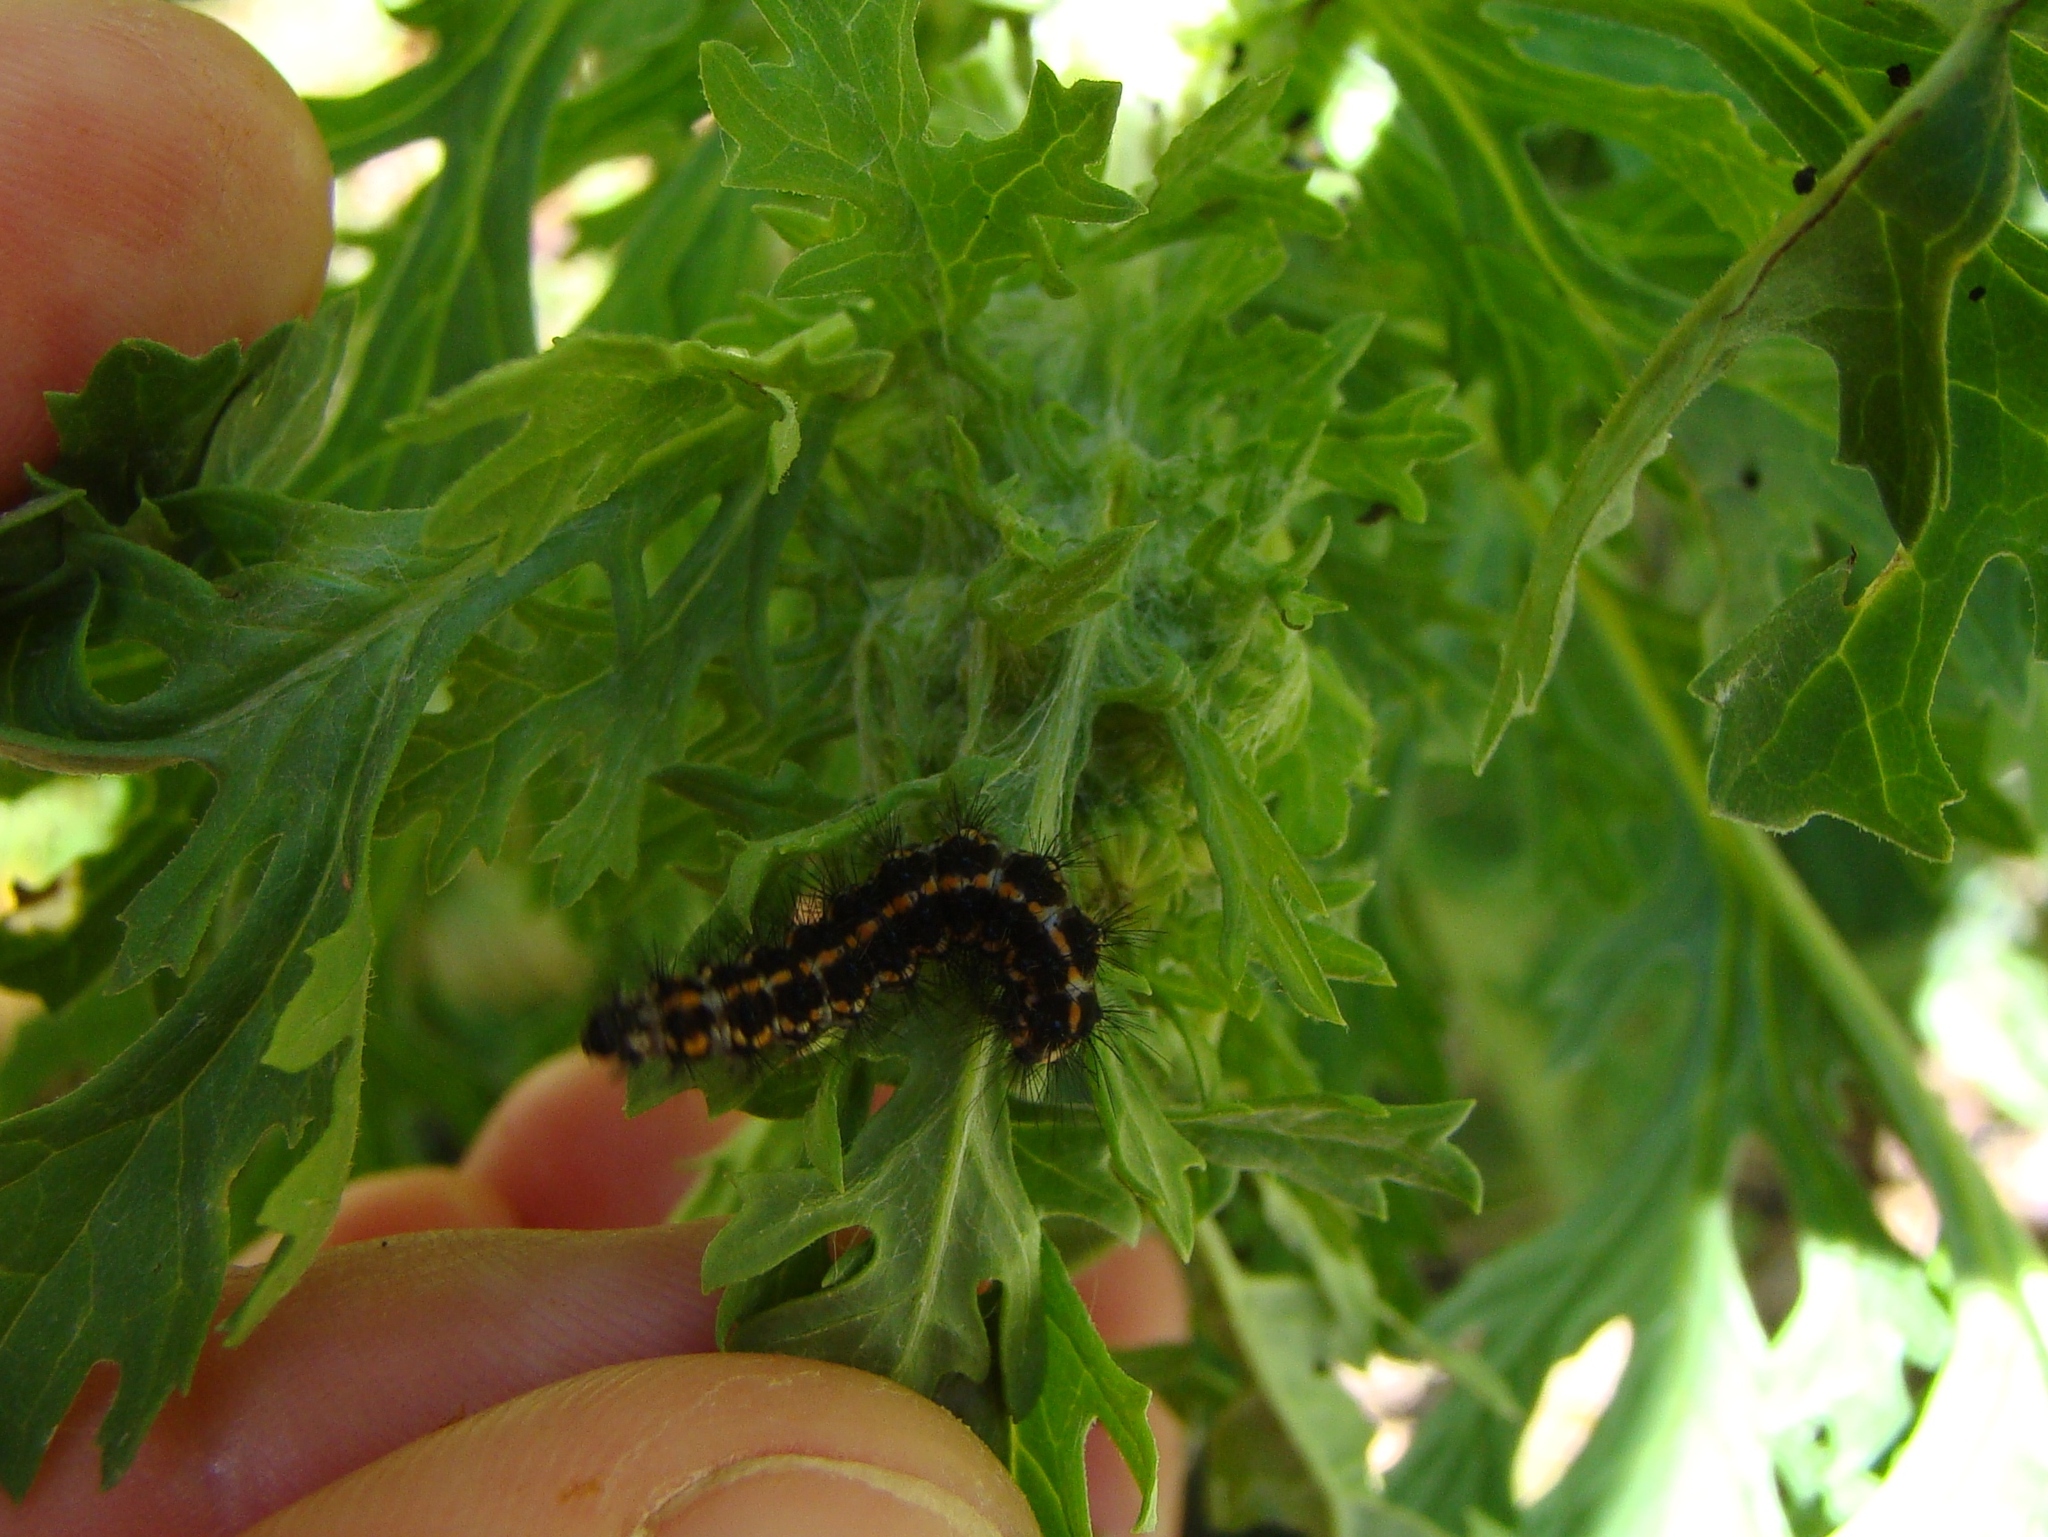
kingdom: Animalia
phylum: Arthropoda
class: Insecta
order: Lepidoptera
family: Erebidae
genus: Nyctemera
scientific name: Nyctemera annulatum
